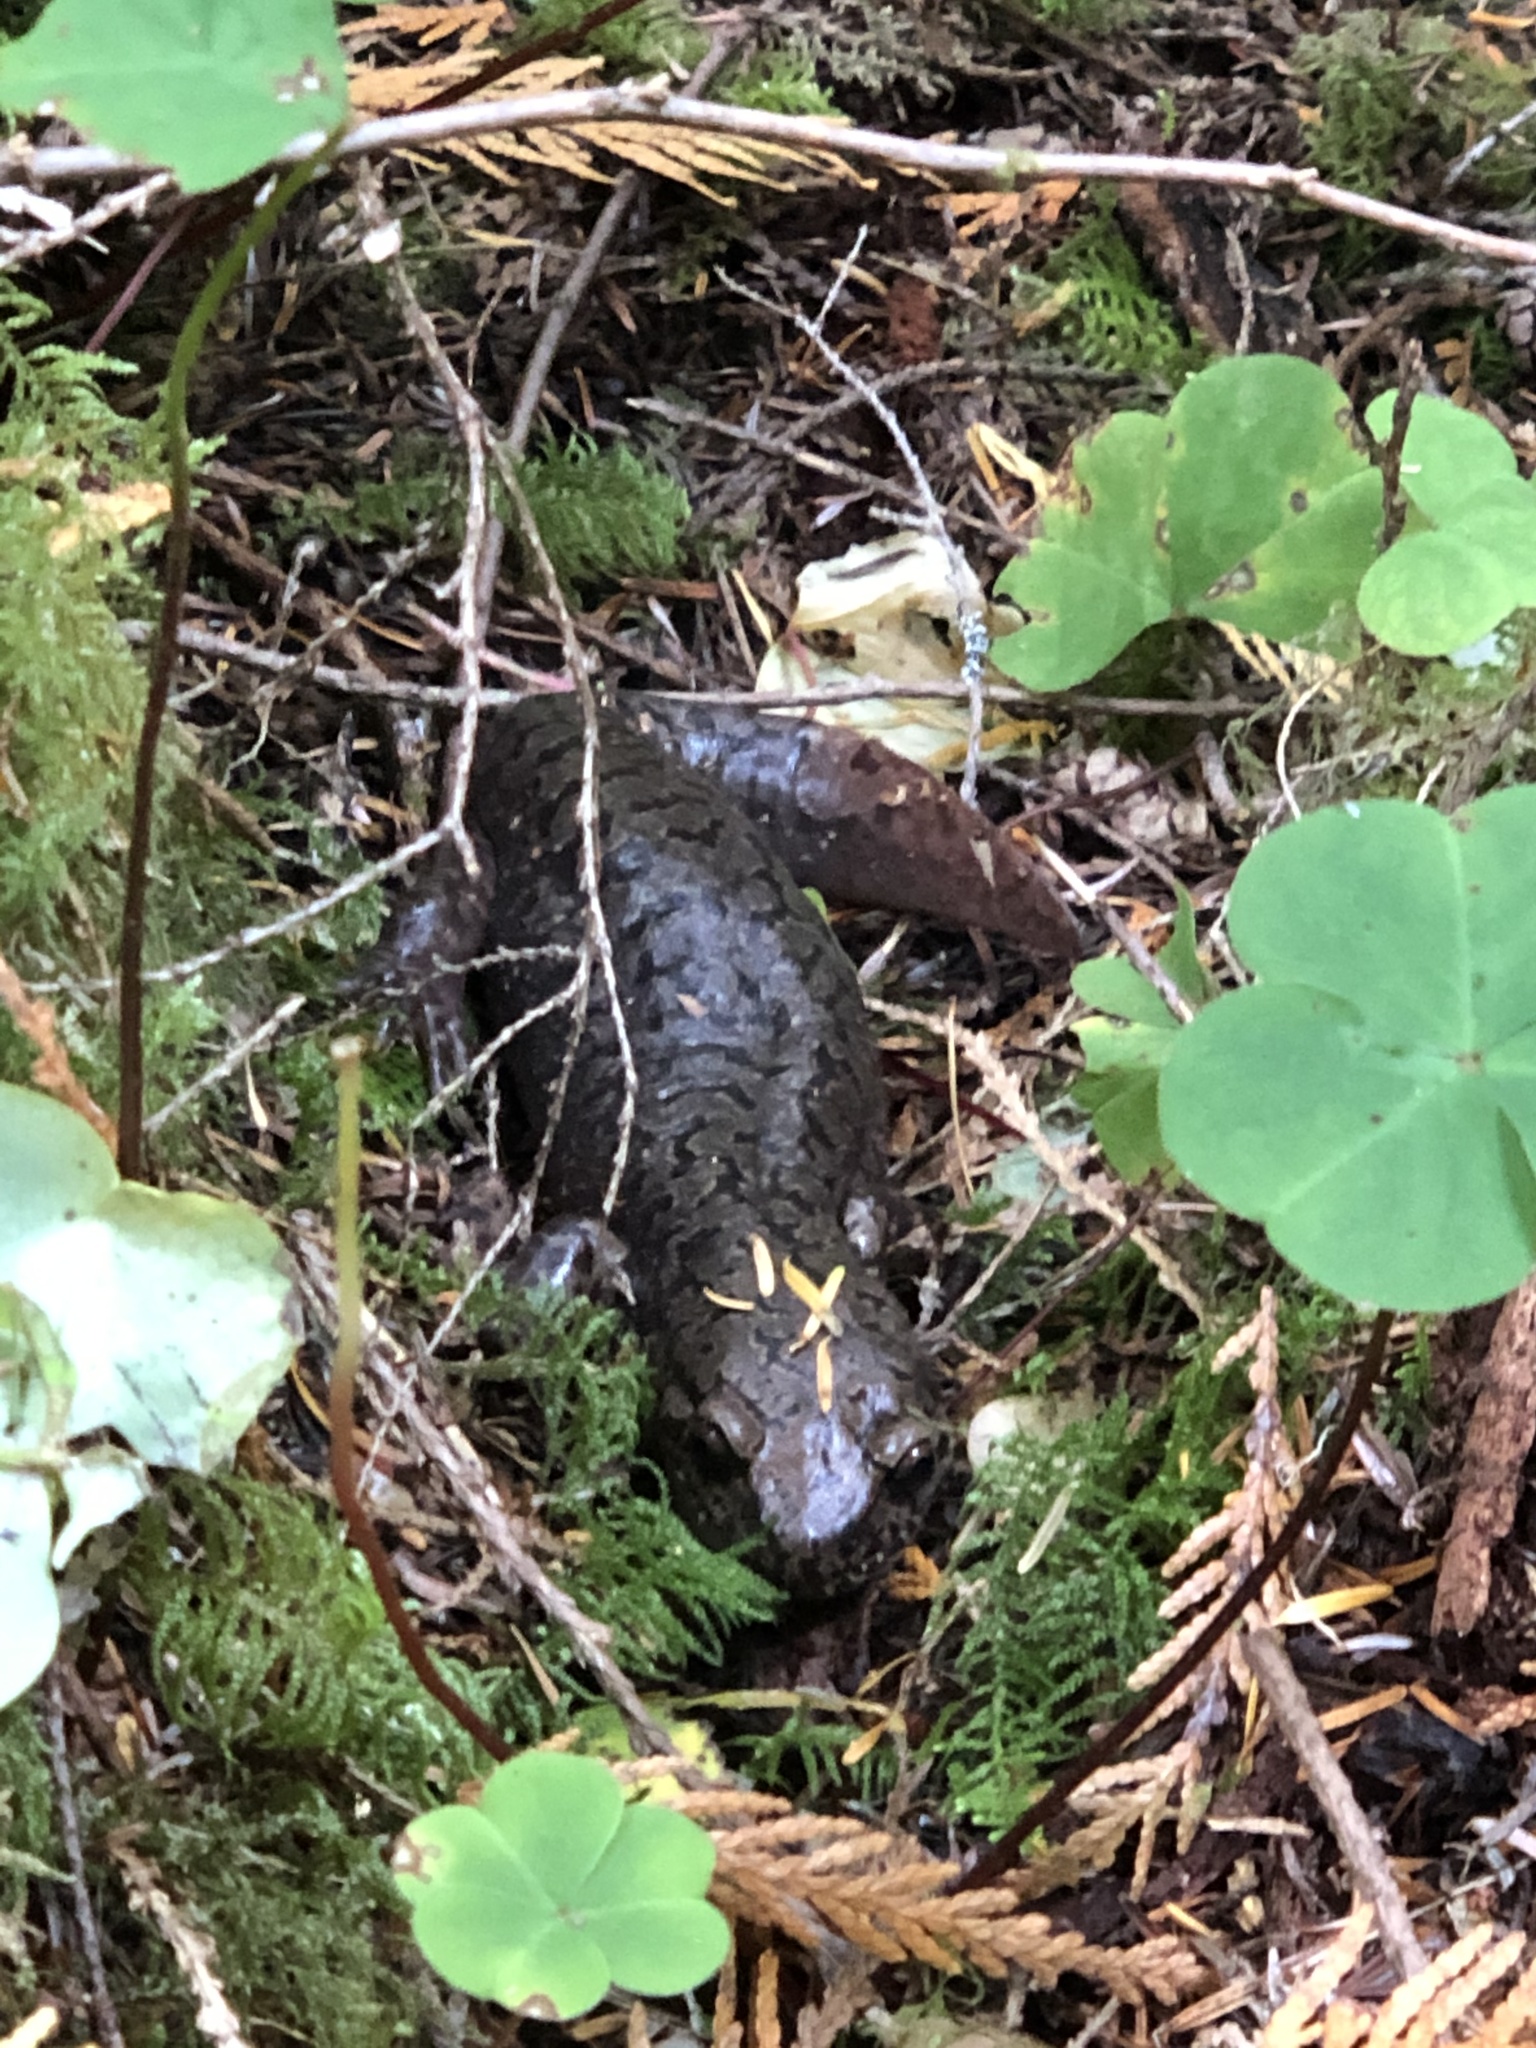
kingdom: Animalia
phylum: Chordata
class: Amphibia
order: Caudata
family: Ambystomatidae
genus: Dicamptodon
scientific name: Dicamptodon tenebrosus
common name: Coastal giant salamander
